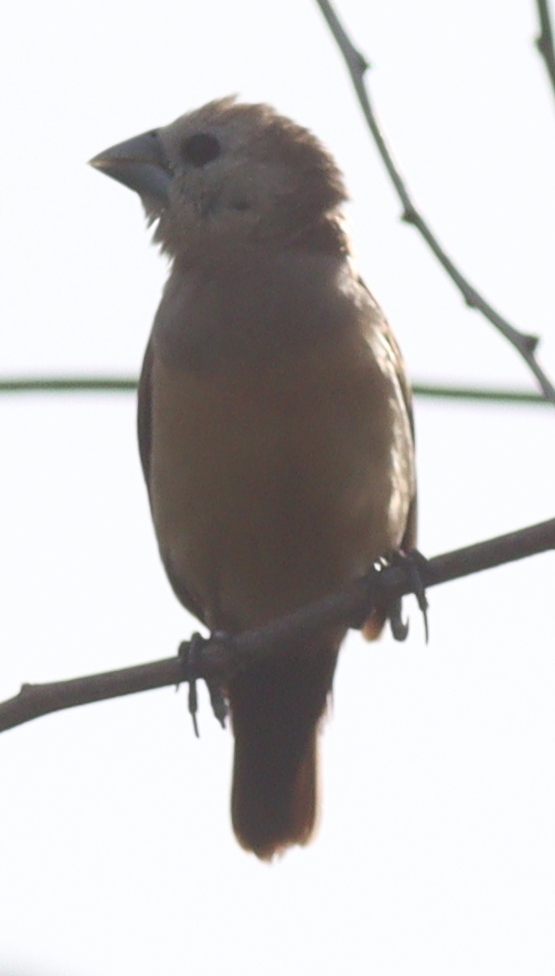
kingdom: Animalia
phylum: Chordata
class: Aves
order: Passeriformes
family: Estrildidae
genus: Lonchura
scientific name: Lonchura pallida
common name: Pale-headed munia
